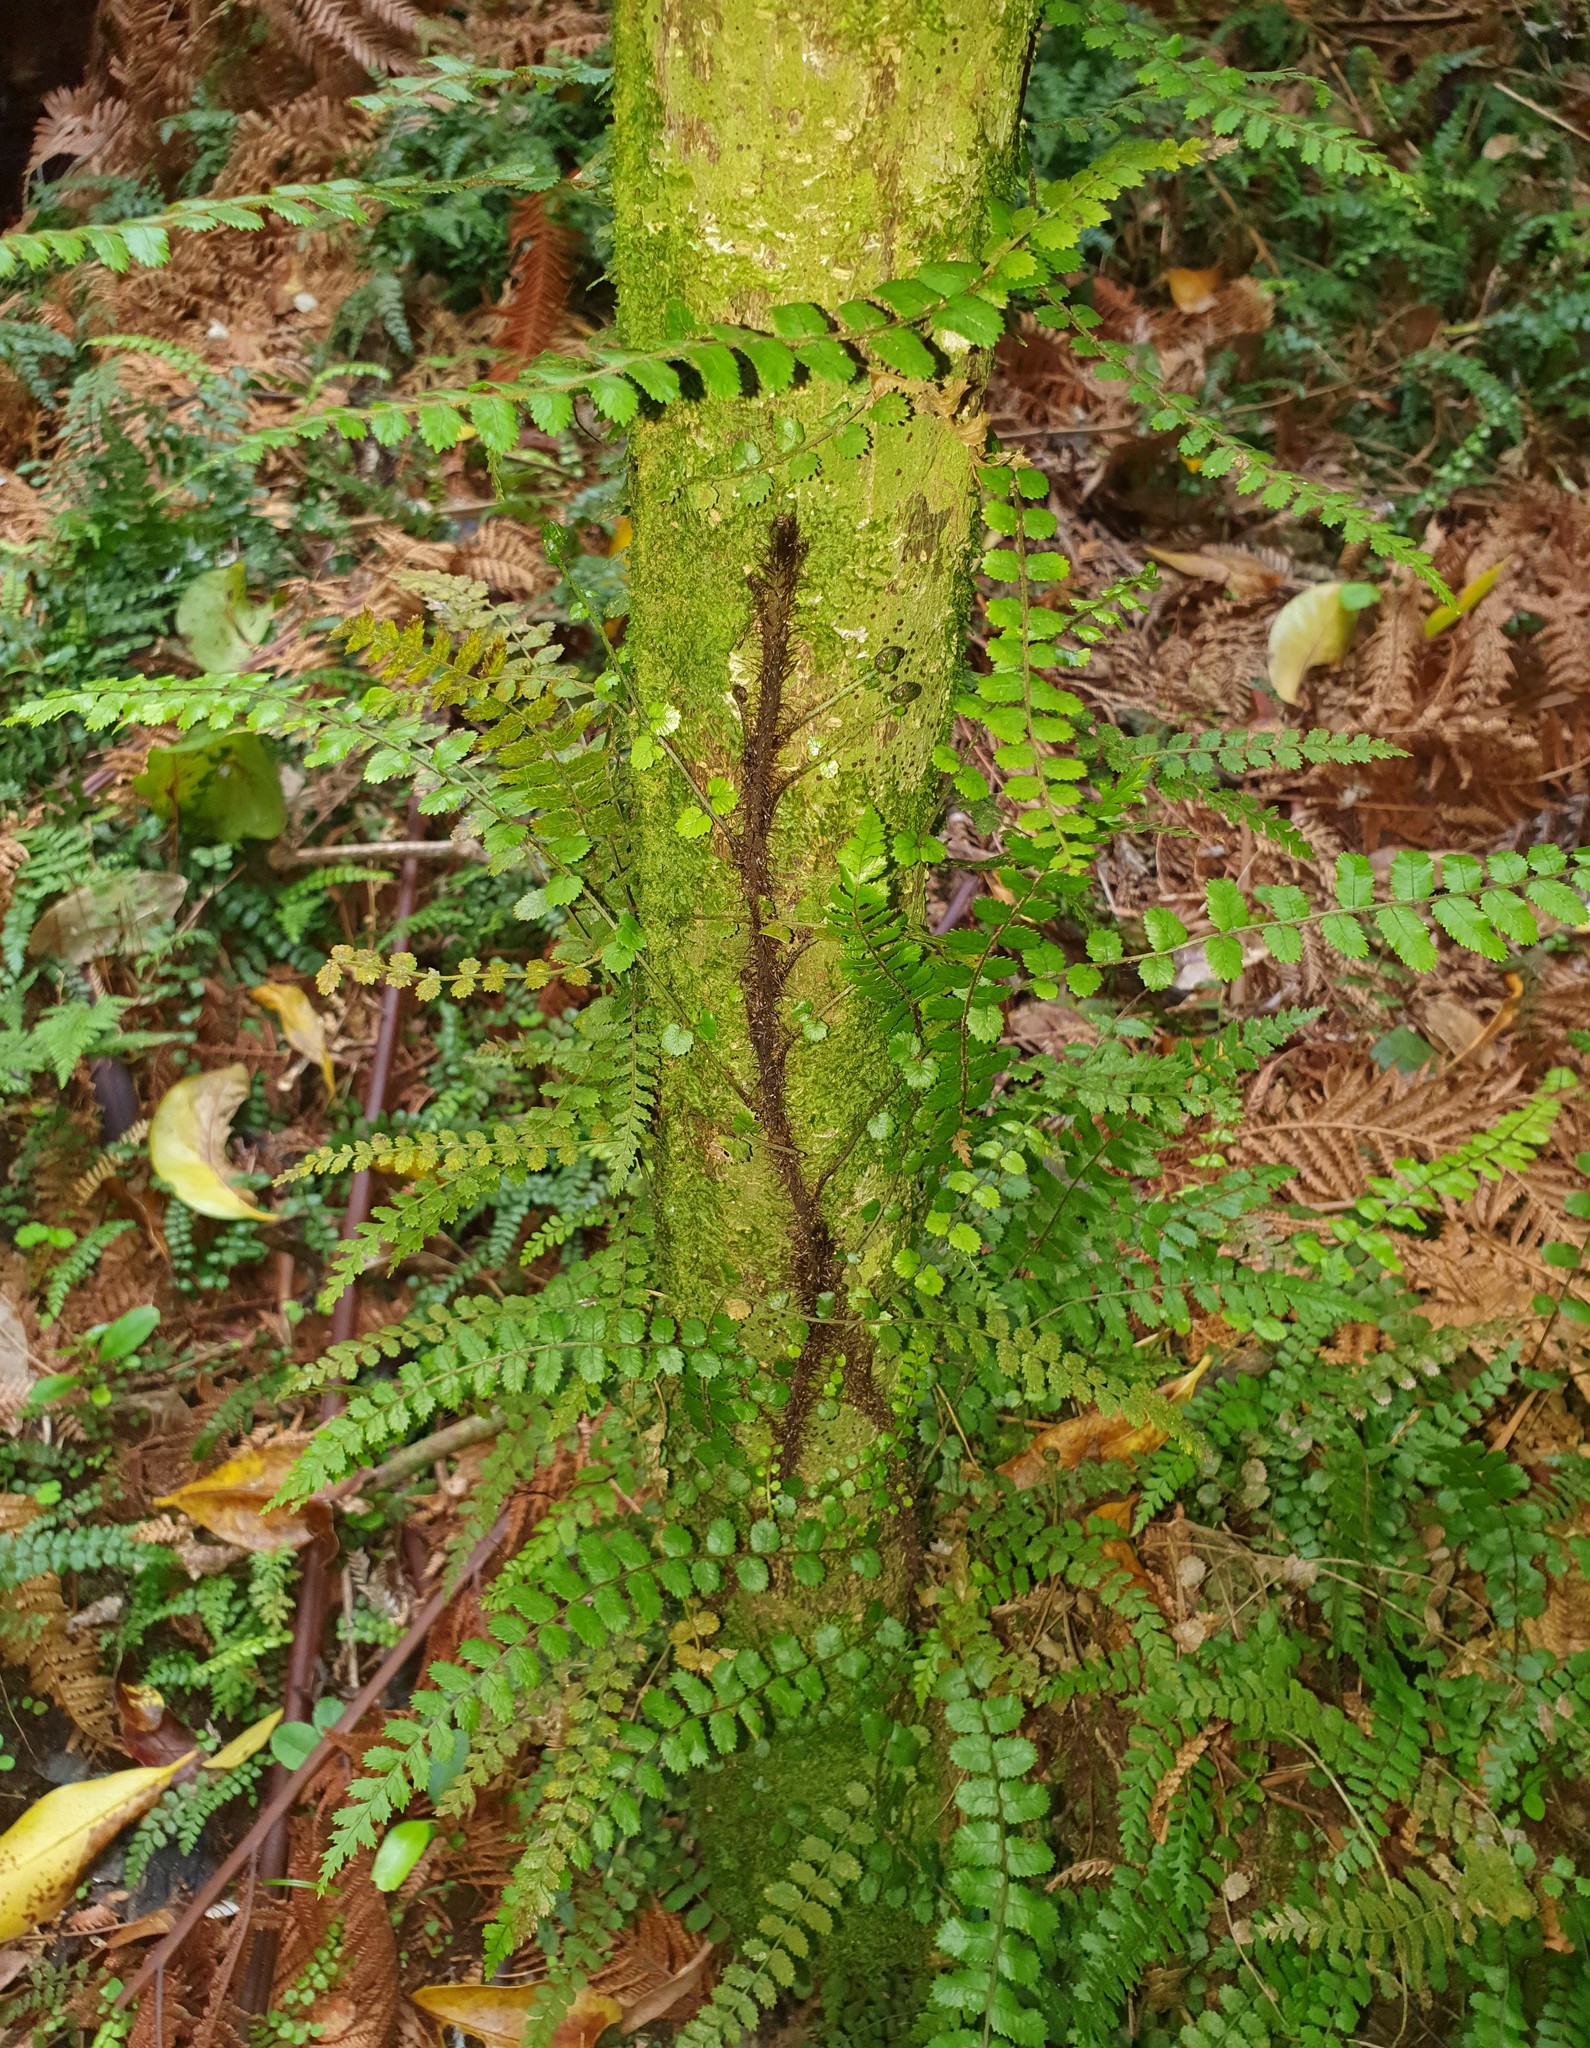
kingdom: Plantae
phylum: Tracheophyta
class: Polypodiopsida
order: Polypodiales
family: Blechnaceae
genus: Icarus
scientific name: Icarus filiformis
